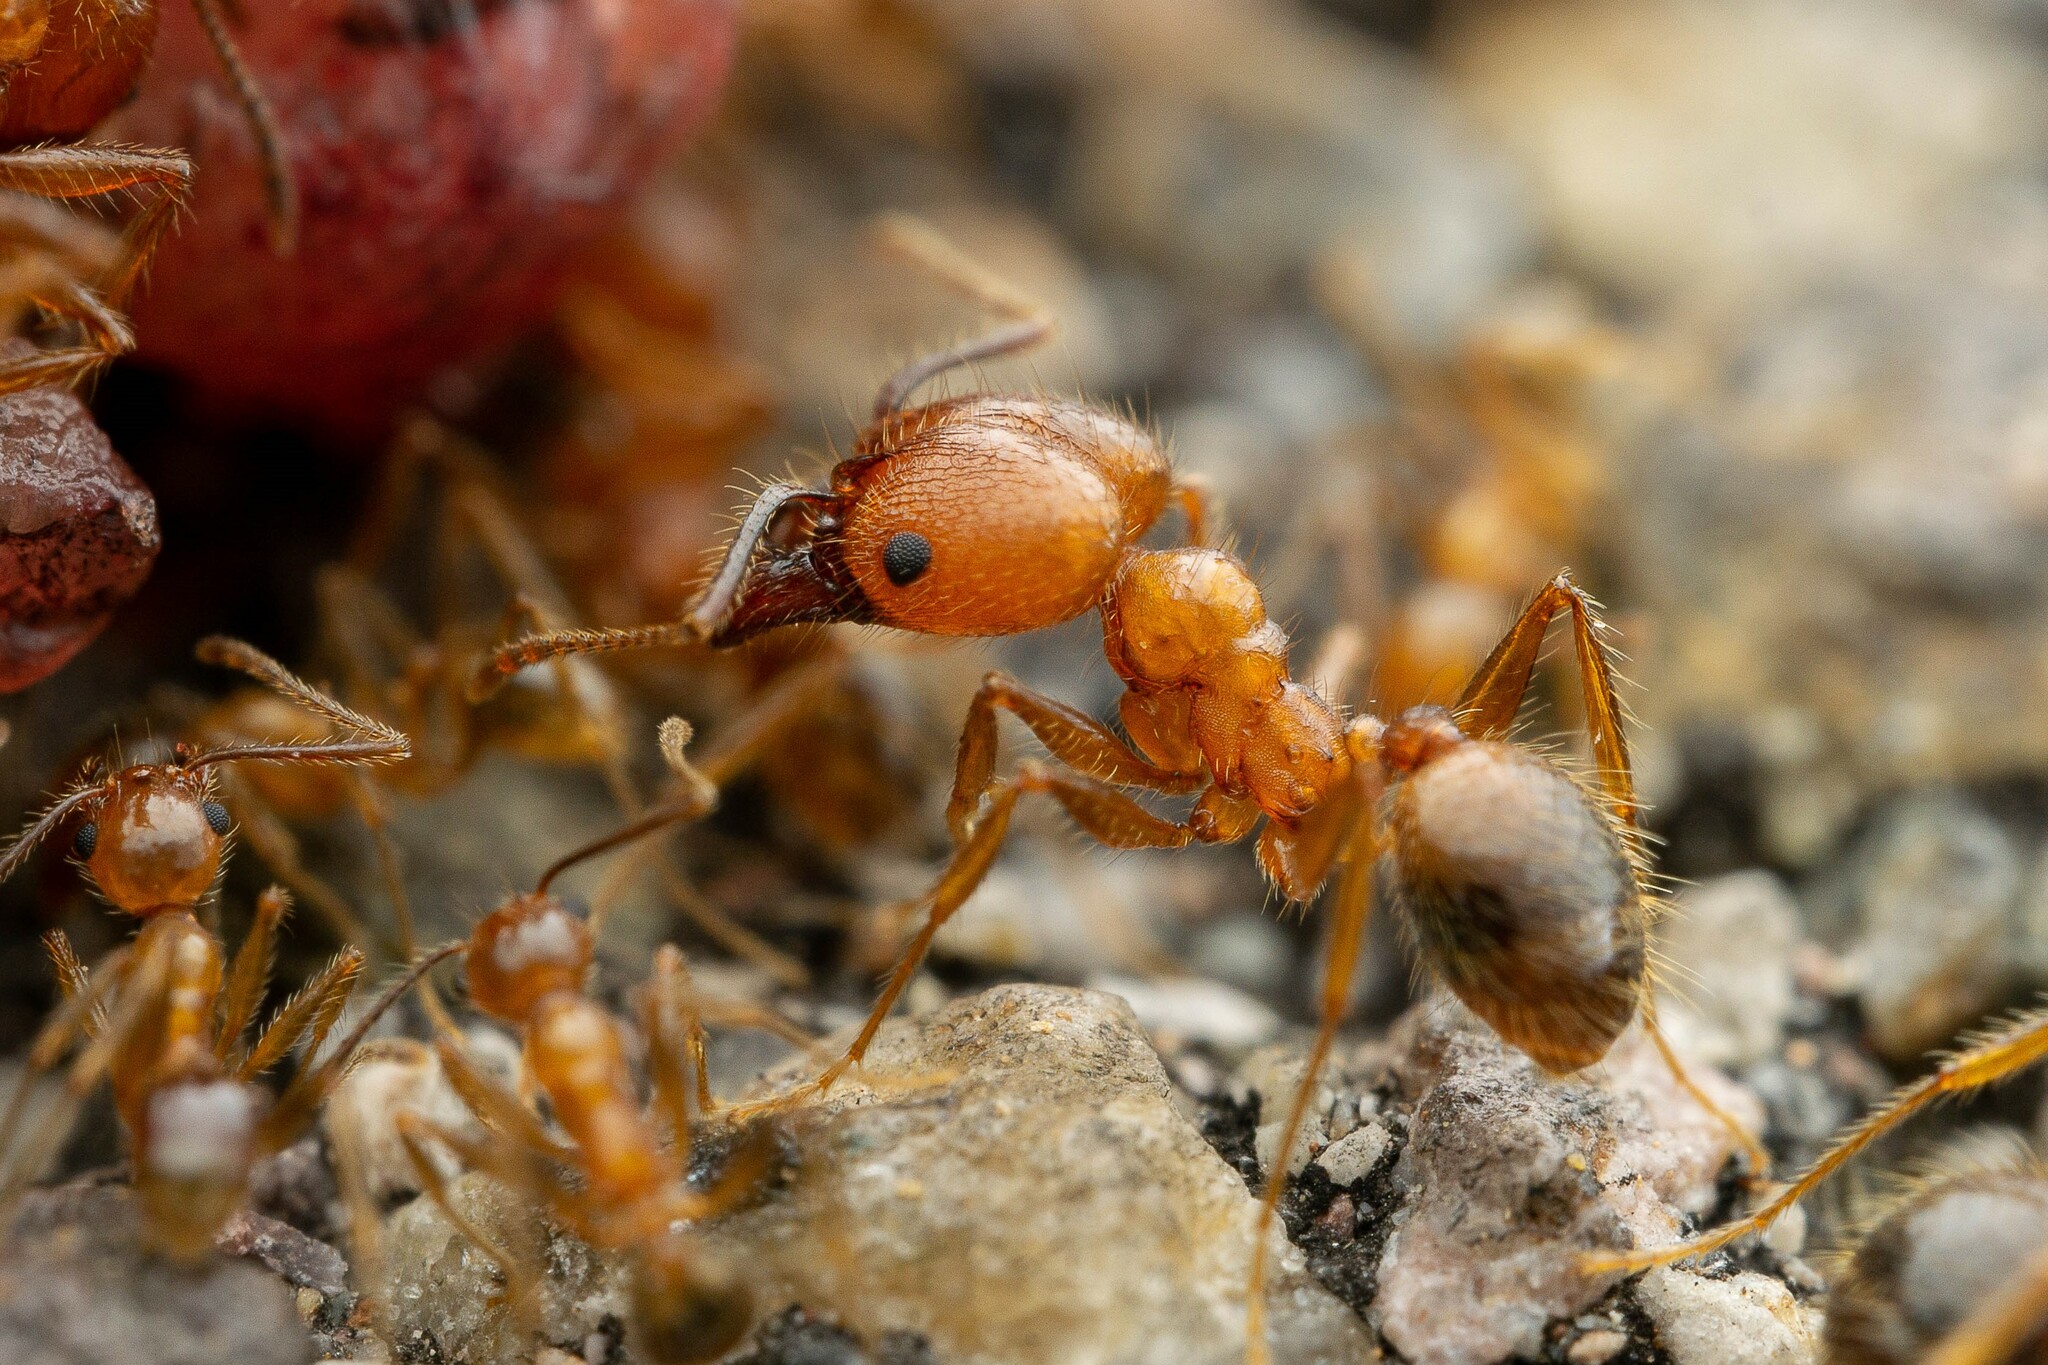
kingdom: Animalia
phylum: Arthropoda
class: Insecta
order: Hymenoptera
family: Formicidae
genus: Pheidole
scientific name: Pheidole hyatti
